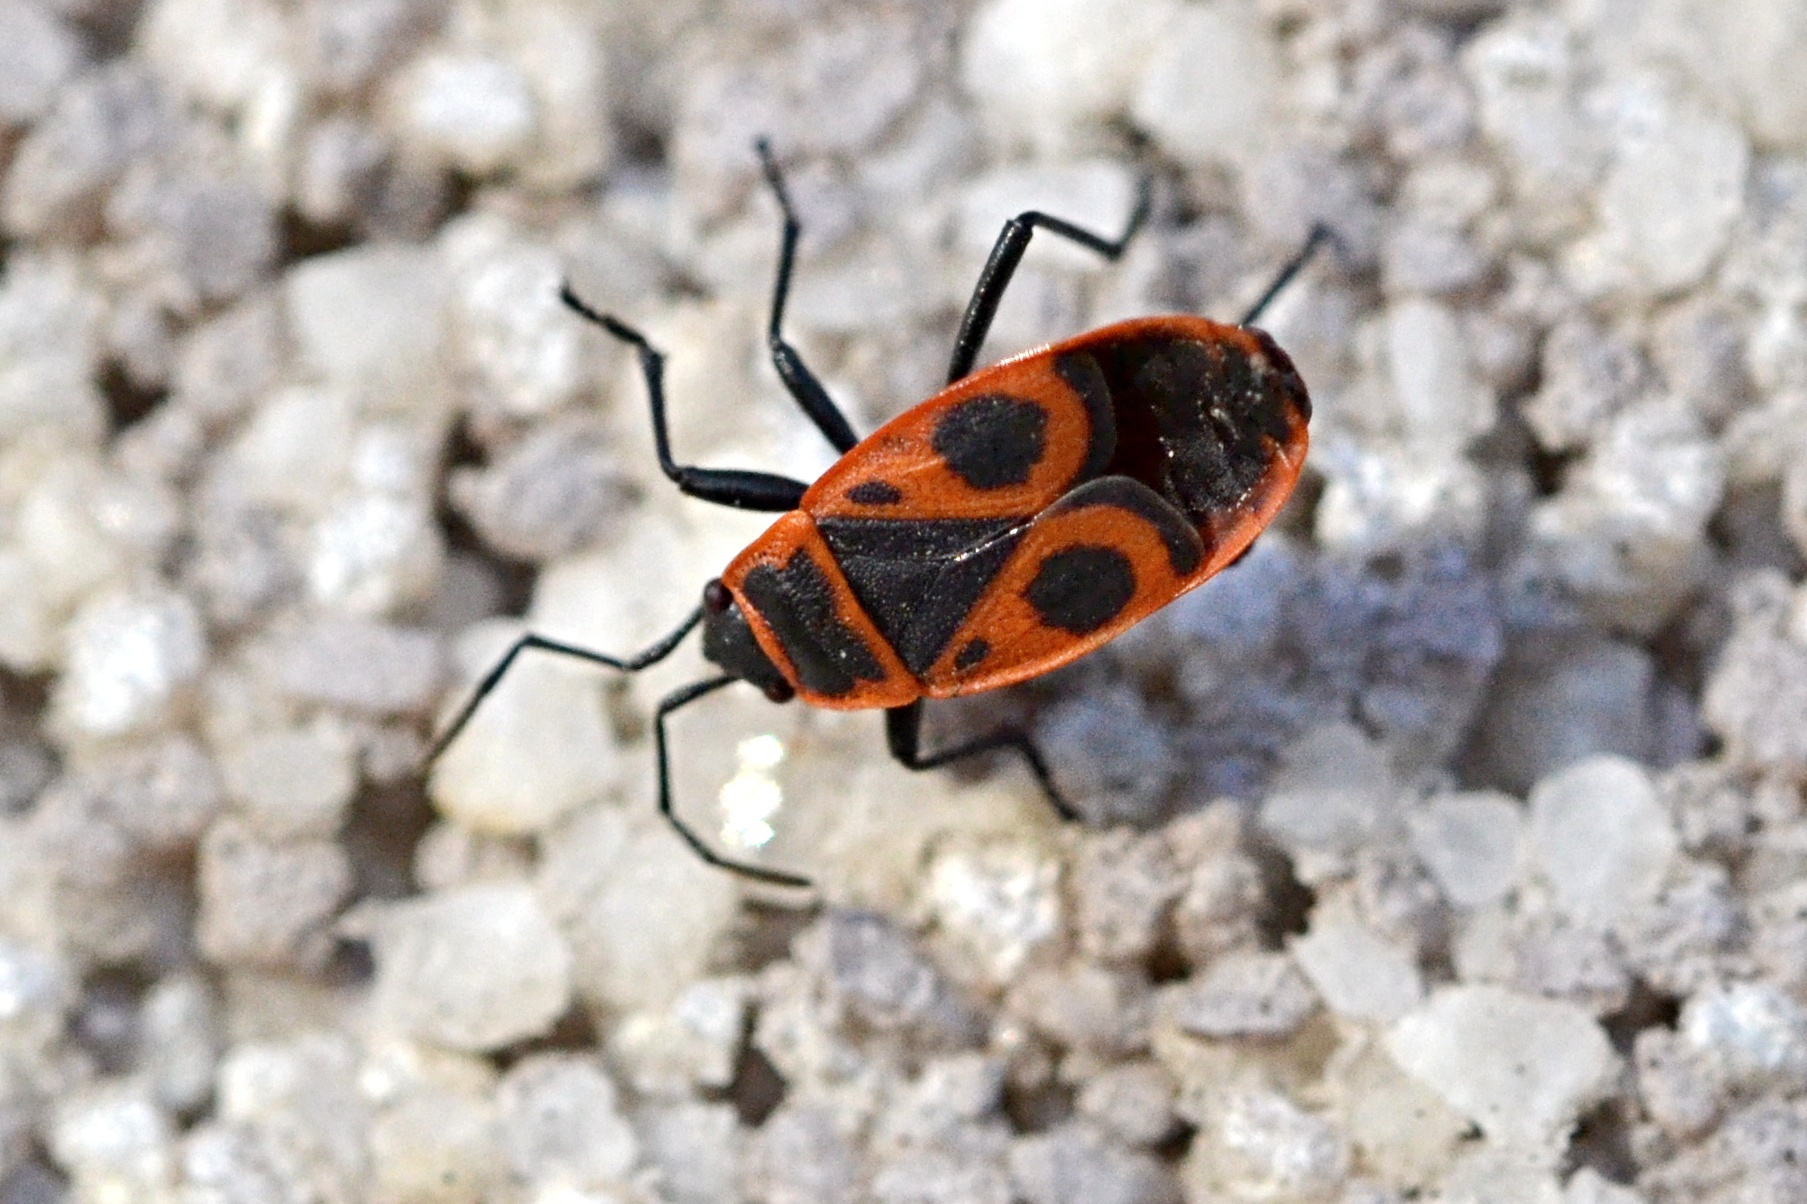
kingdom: Animalia
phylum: Arthropoda
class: Insecta
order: Hemiptera
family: Pyrrhocoridae
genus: Pyrrhocoris
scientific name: Pyrrhocoris apterus
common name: Firebug
